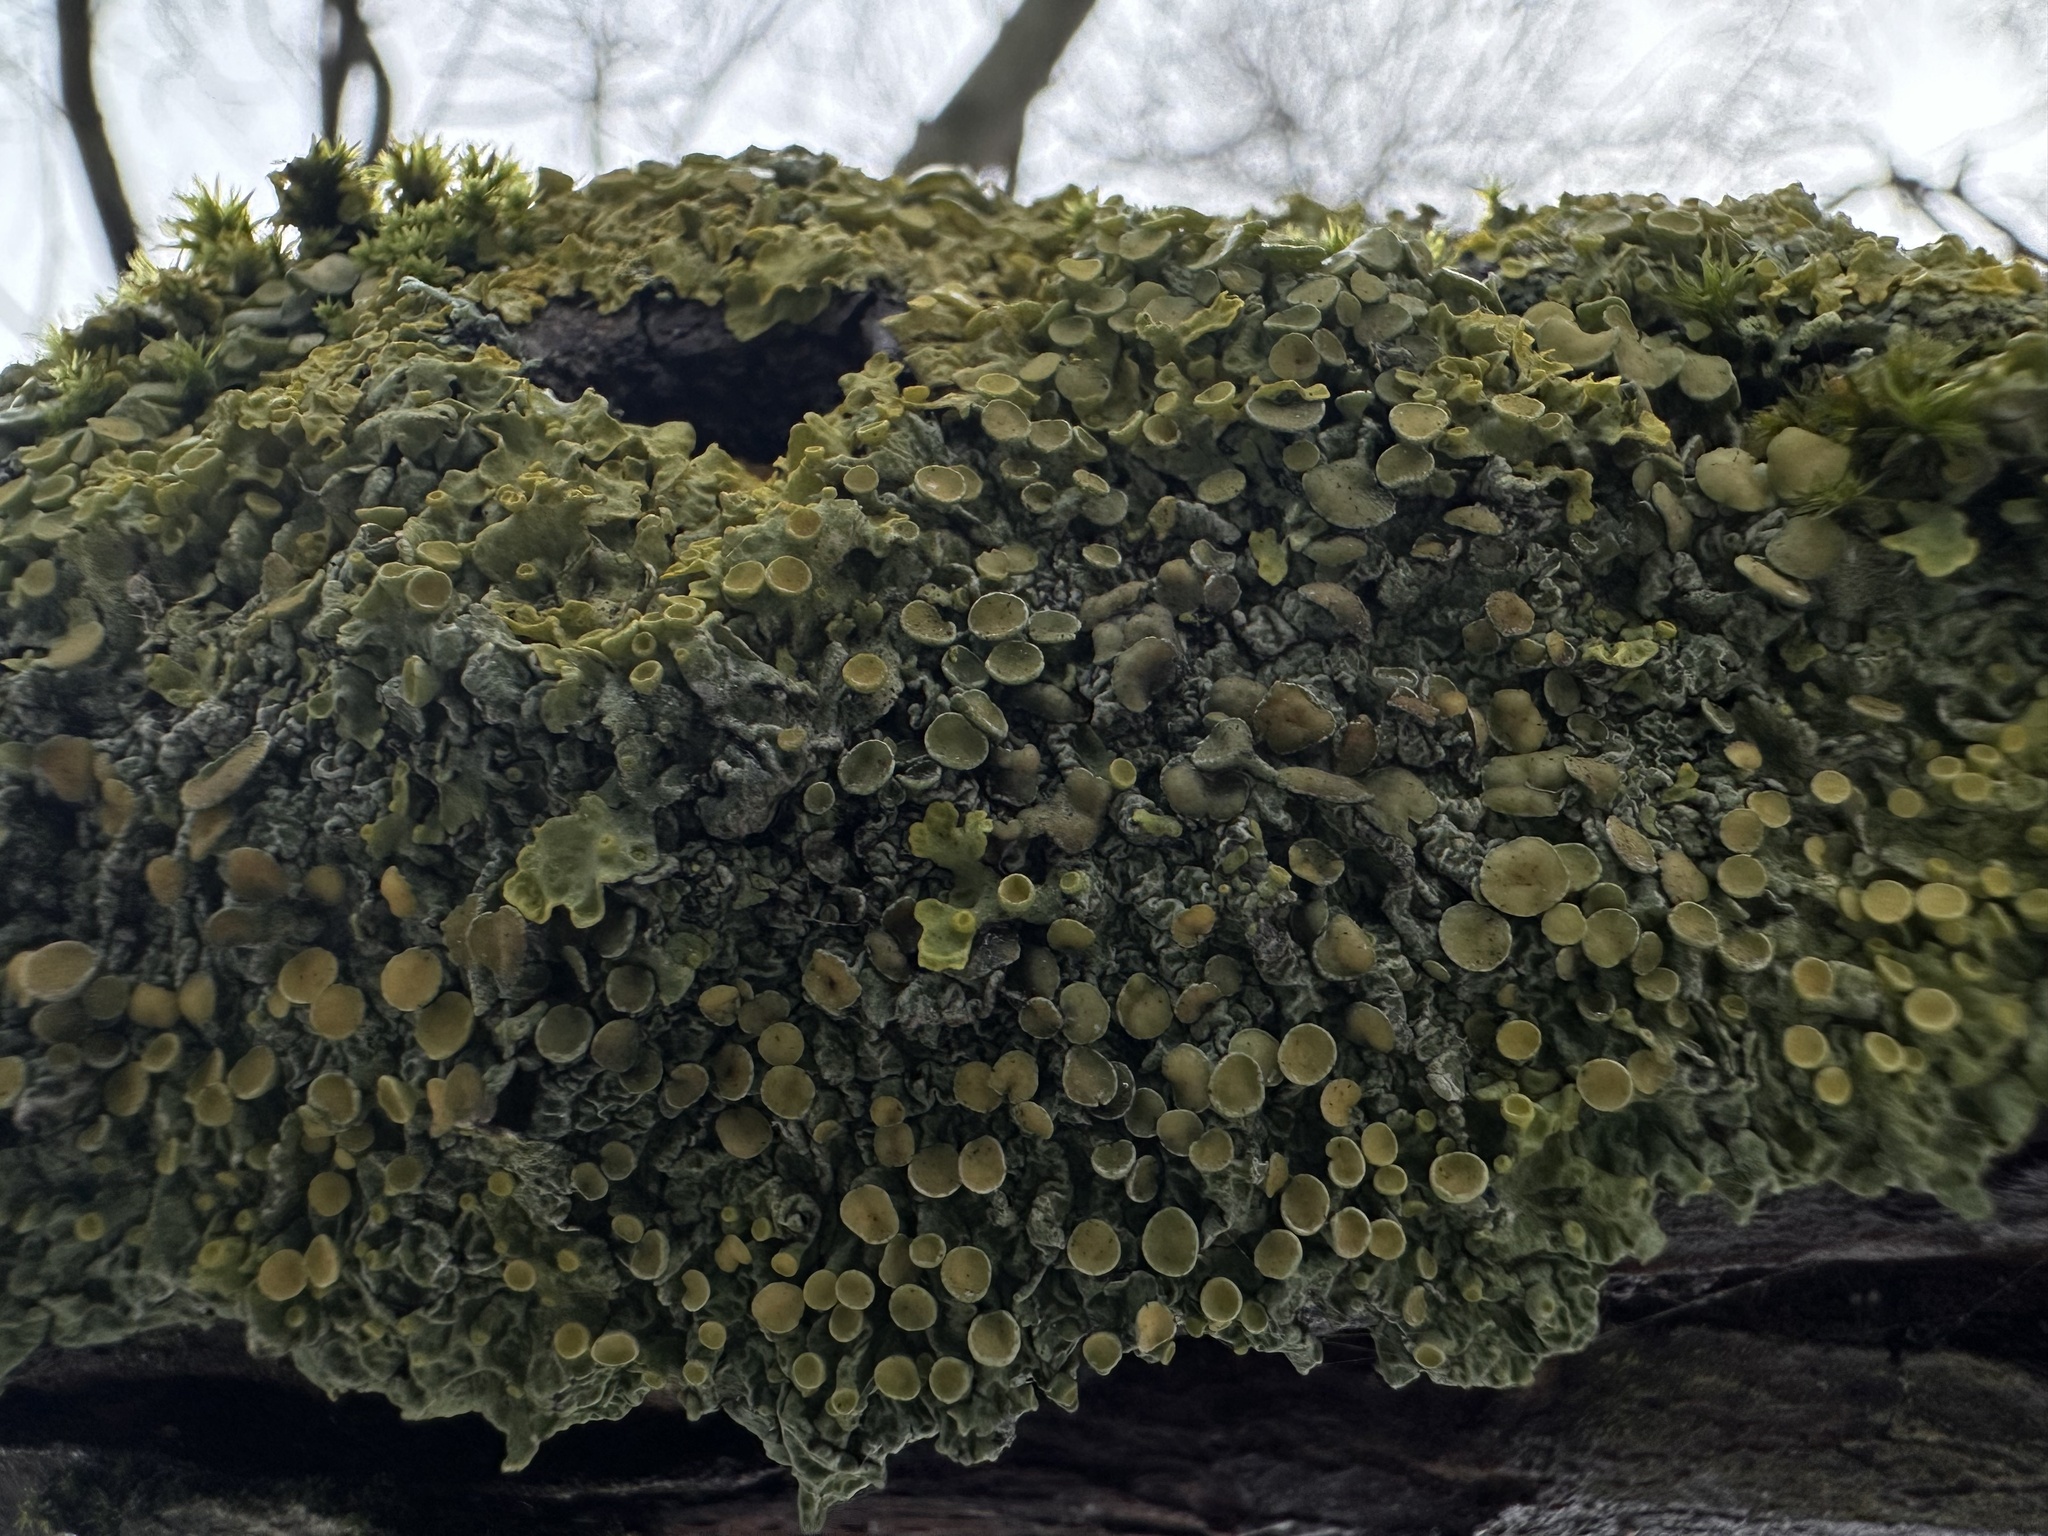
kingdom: Fungi
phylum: Ascomycota
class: Lecanoromycetes
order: Teloschistales
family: Teloschistaceae
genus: Xanthoria
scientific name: Xanthoria parietina
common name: Common orange lichen
